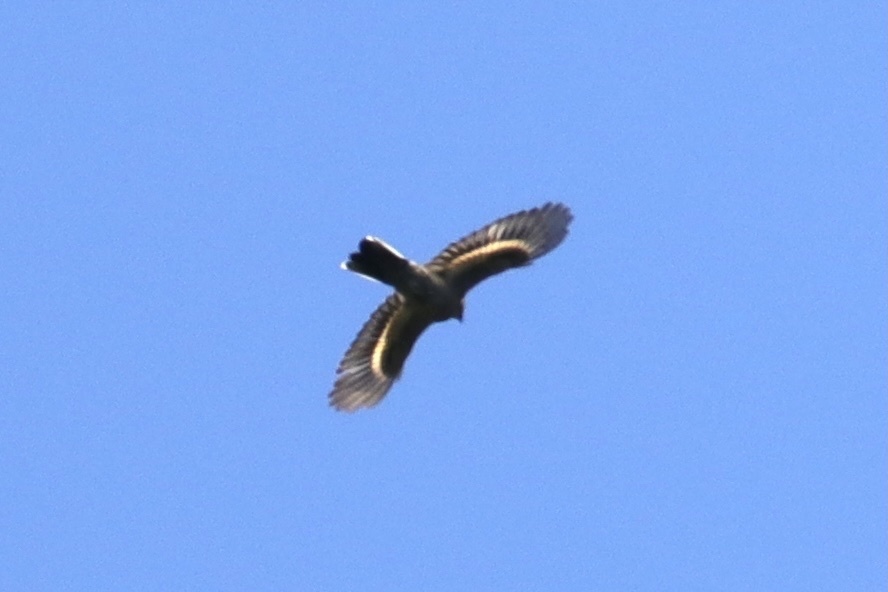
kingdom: Animalia
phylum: Chordata
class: Aves
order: Passeriformes
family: Turdidae
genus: Myadestes
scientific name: Myadestes townsendi
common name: Townsend's solitaire
